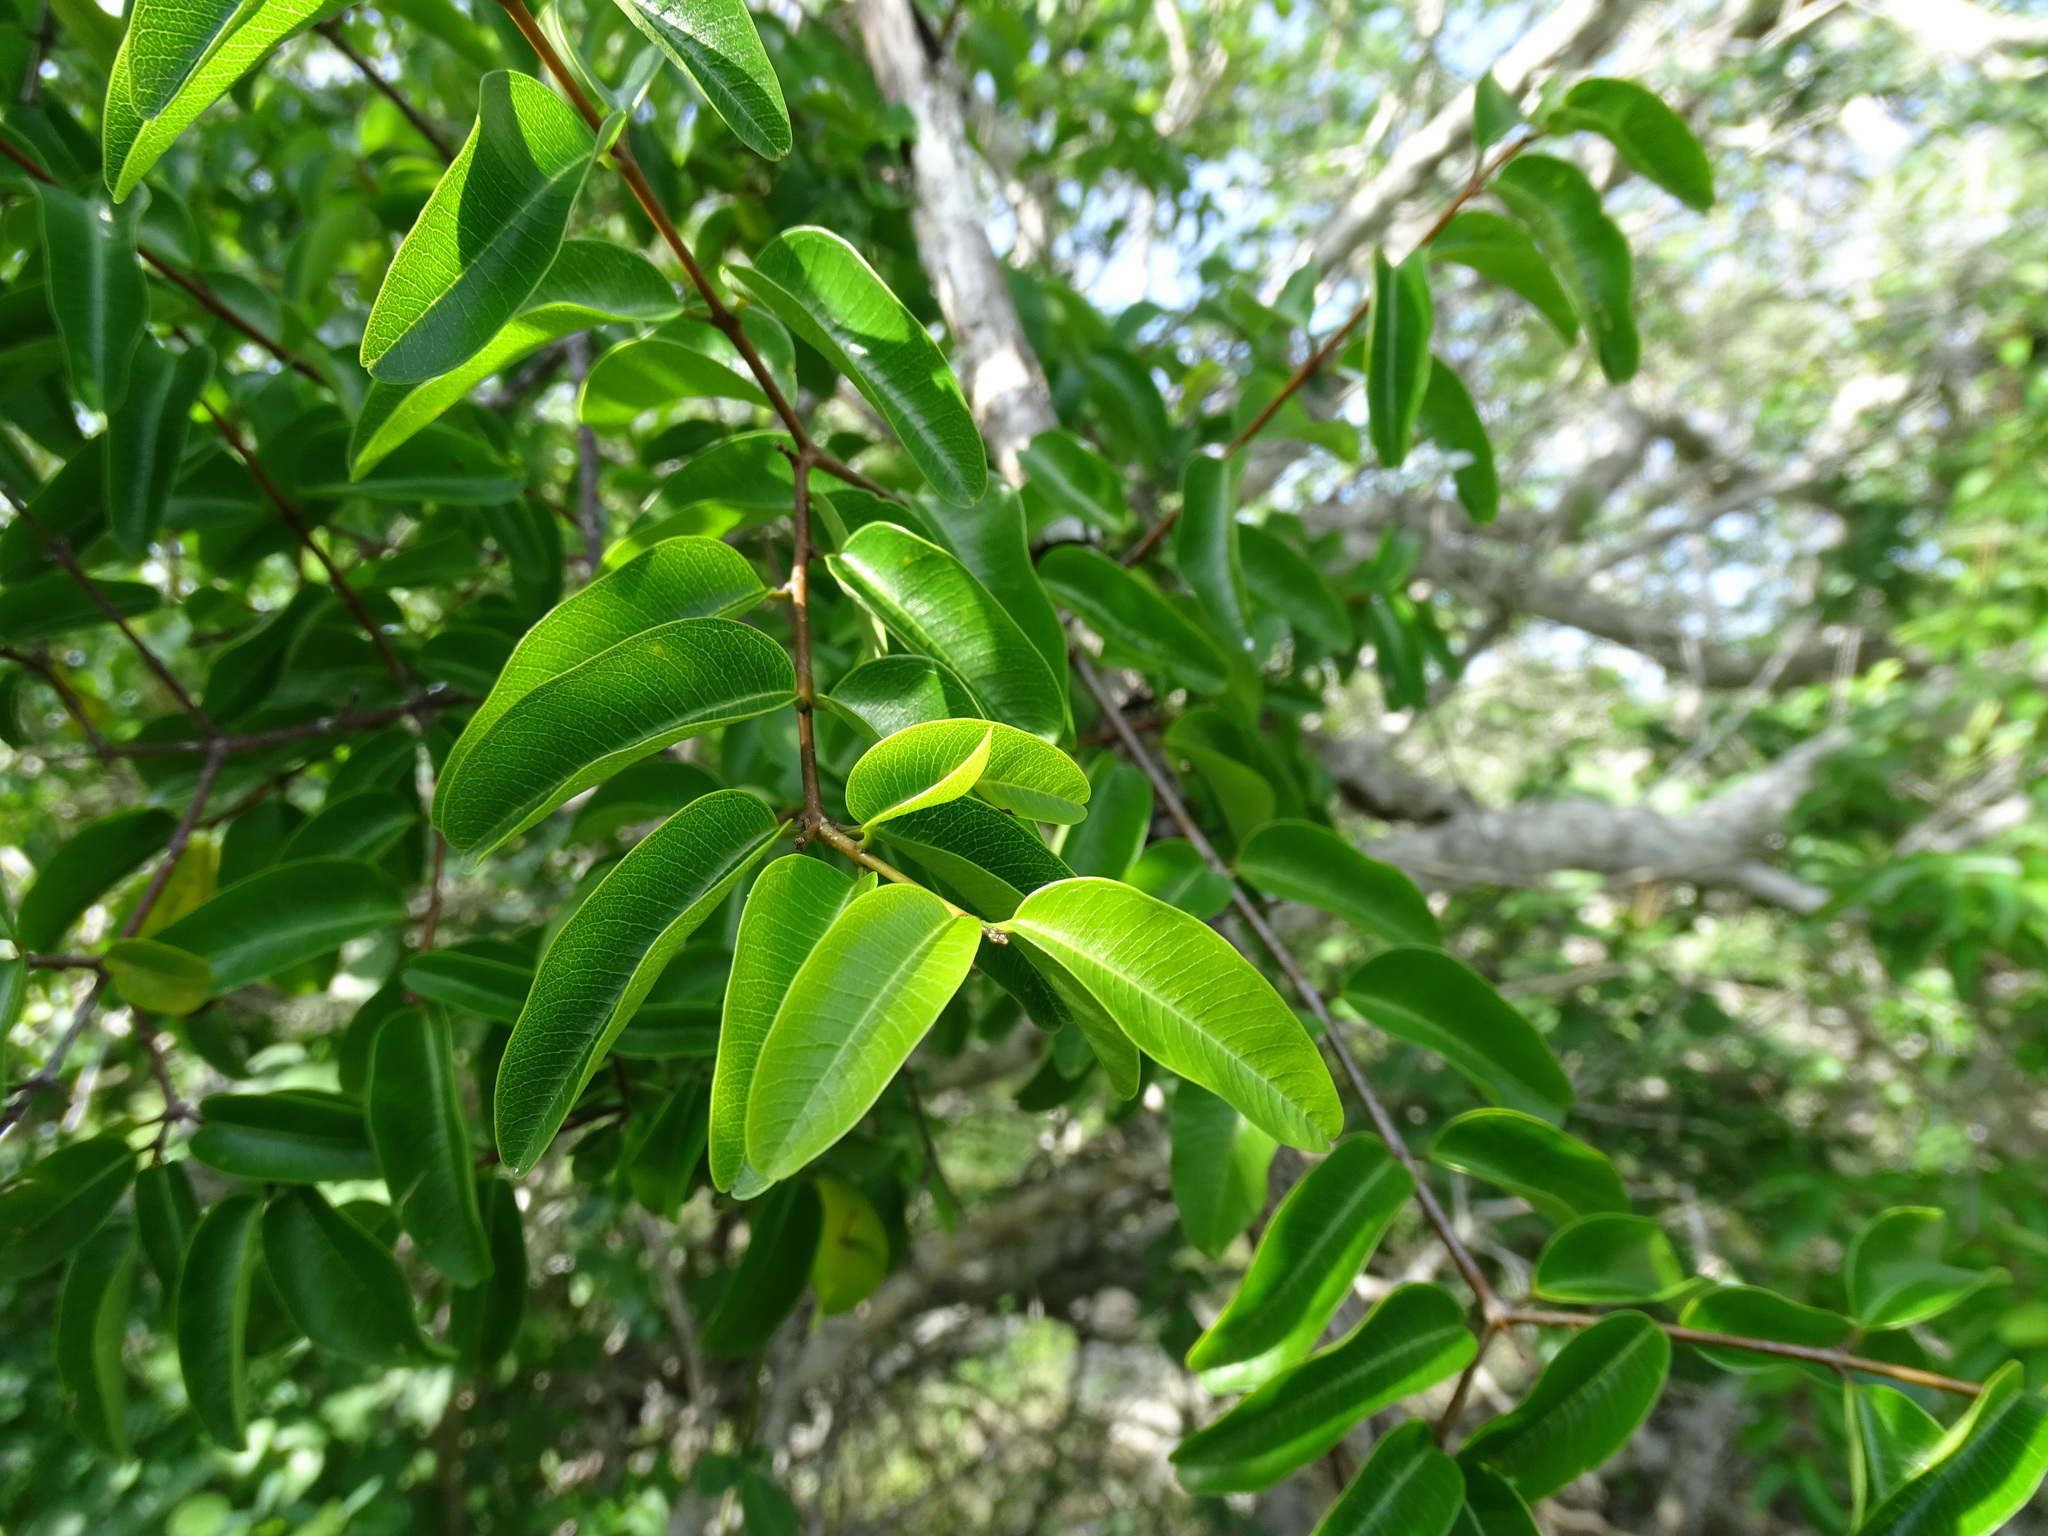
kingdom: Plantae
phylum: Tracheophyta
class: Magnoliopsida
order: Gentianales
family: Apocynaceae
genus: Cameraria
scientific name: Cameraria latifolia
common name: Savanna white poisonwood
